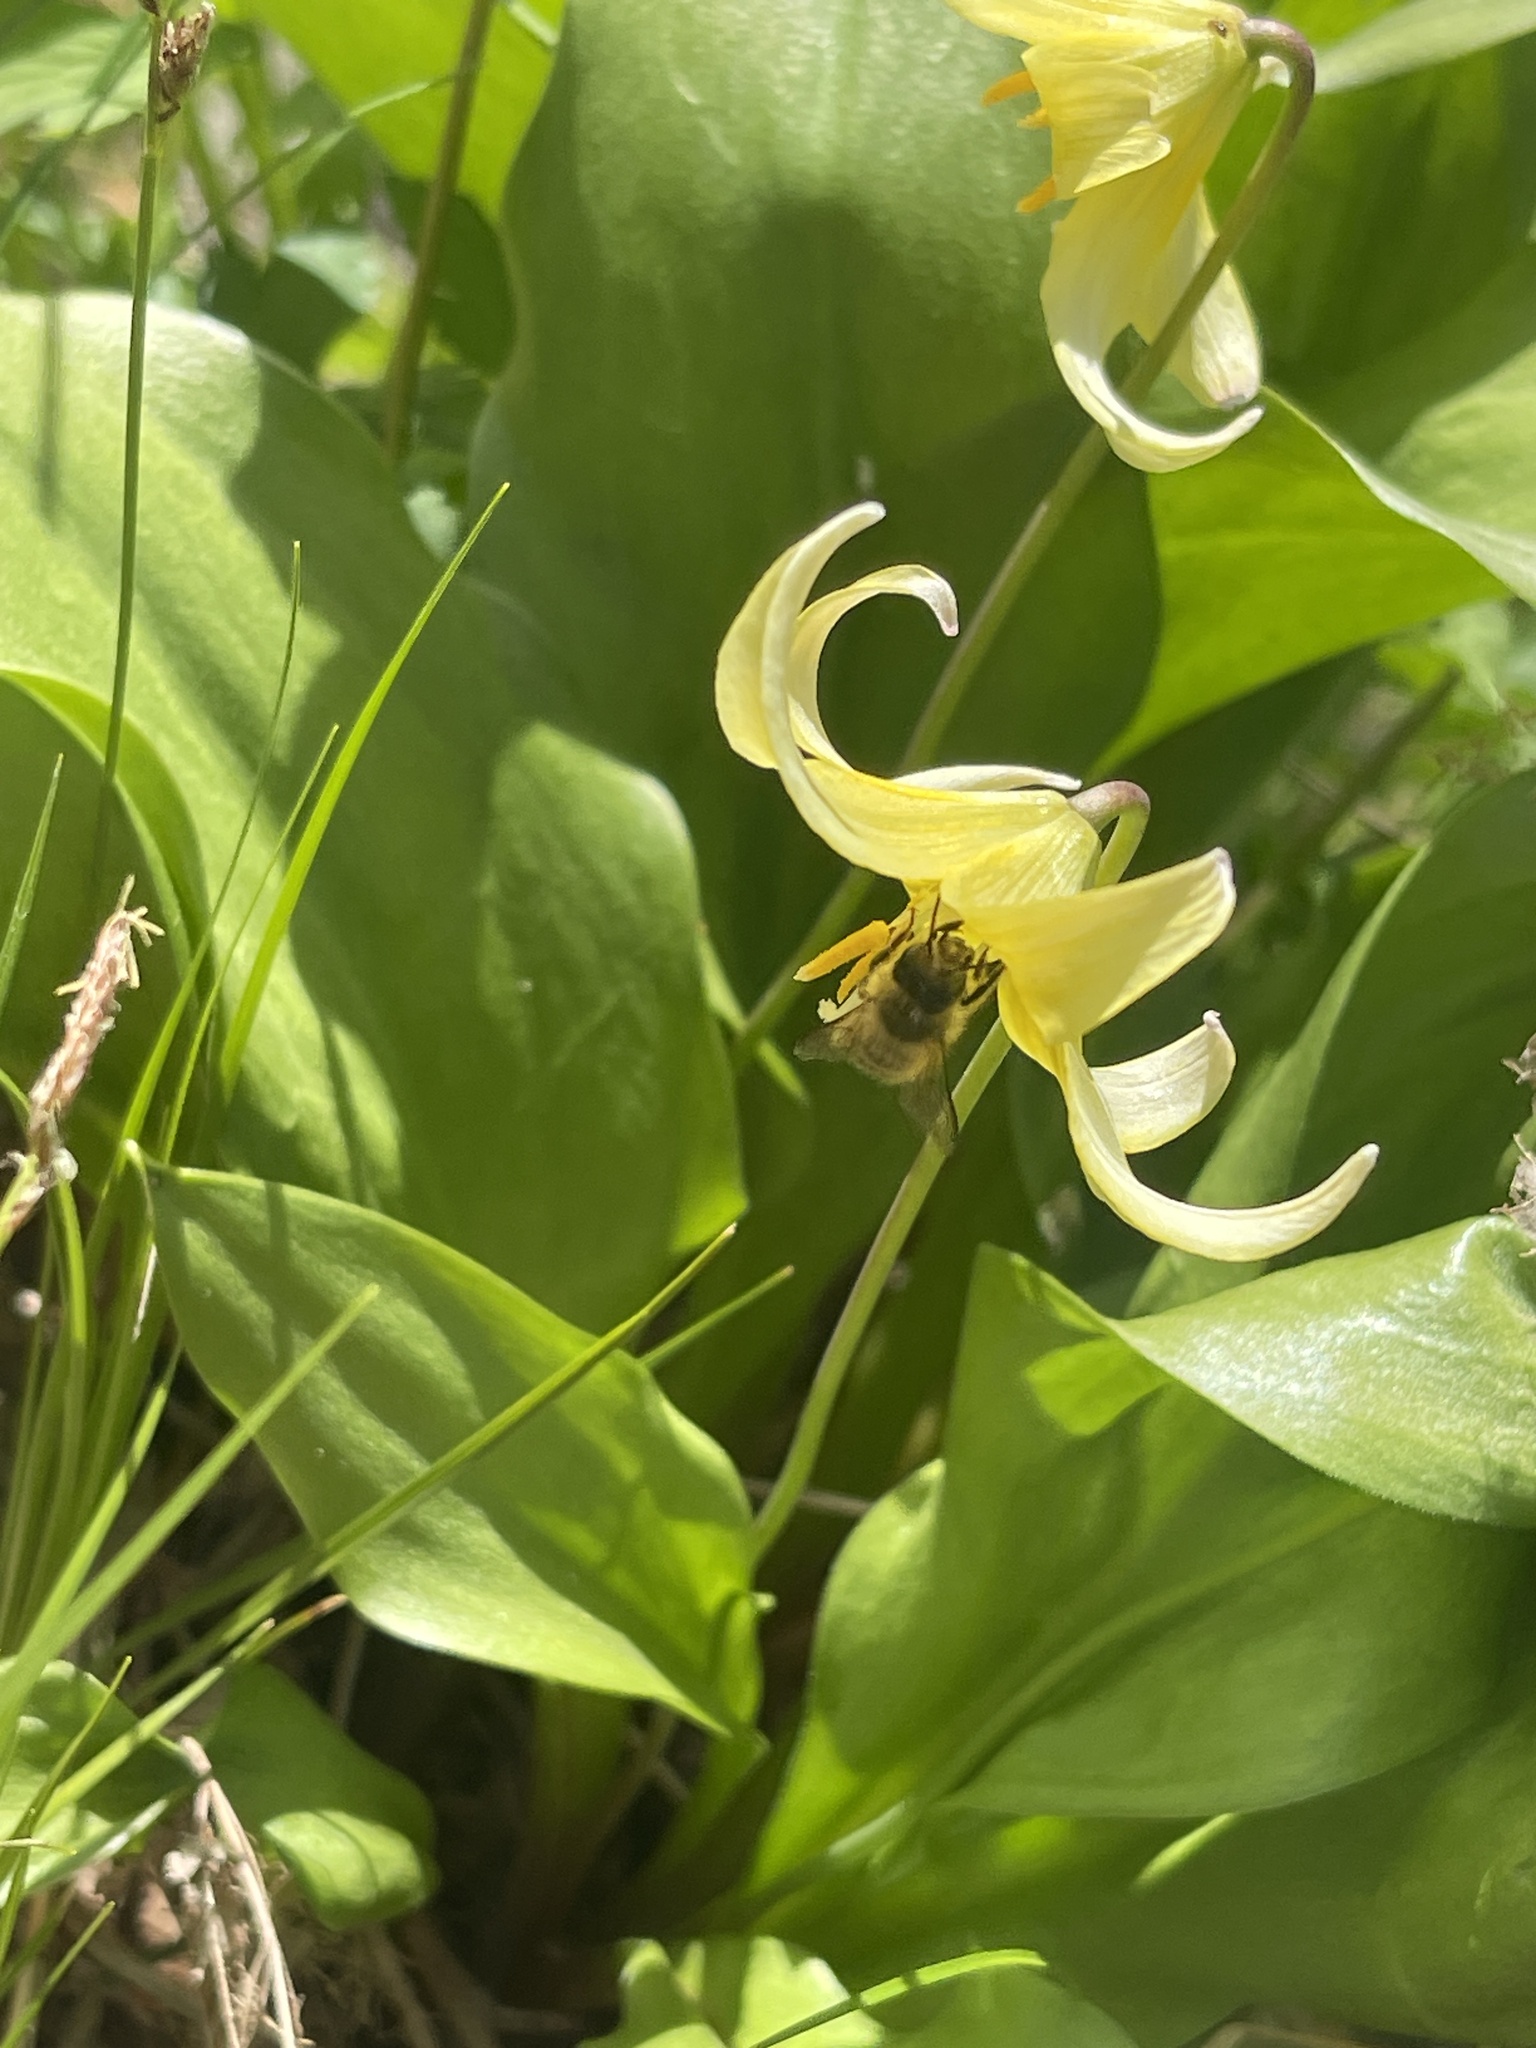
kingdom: Animalia
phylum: Arthropoda
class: Insecta
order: Hymenoptera
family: Megachilidae
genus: Osmia
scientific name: Osmia cornifrons
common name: Horn-faced bee
